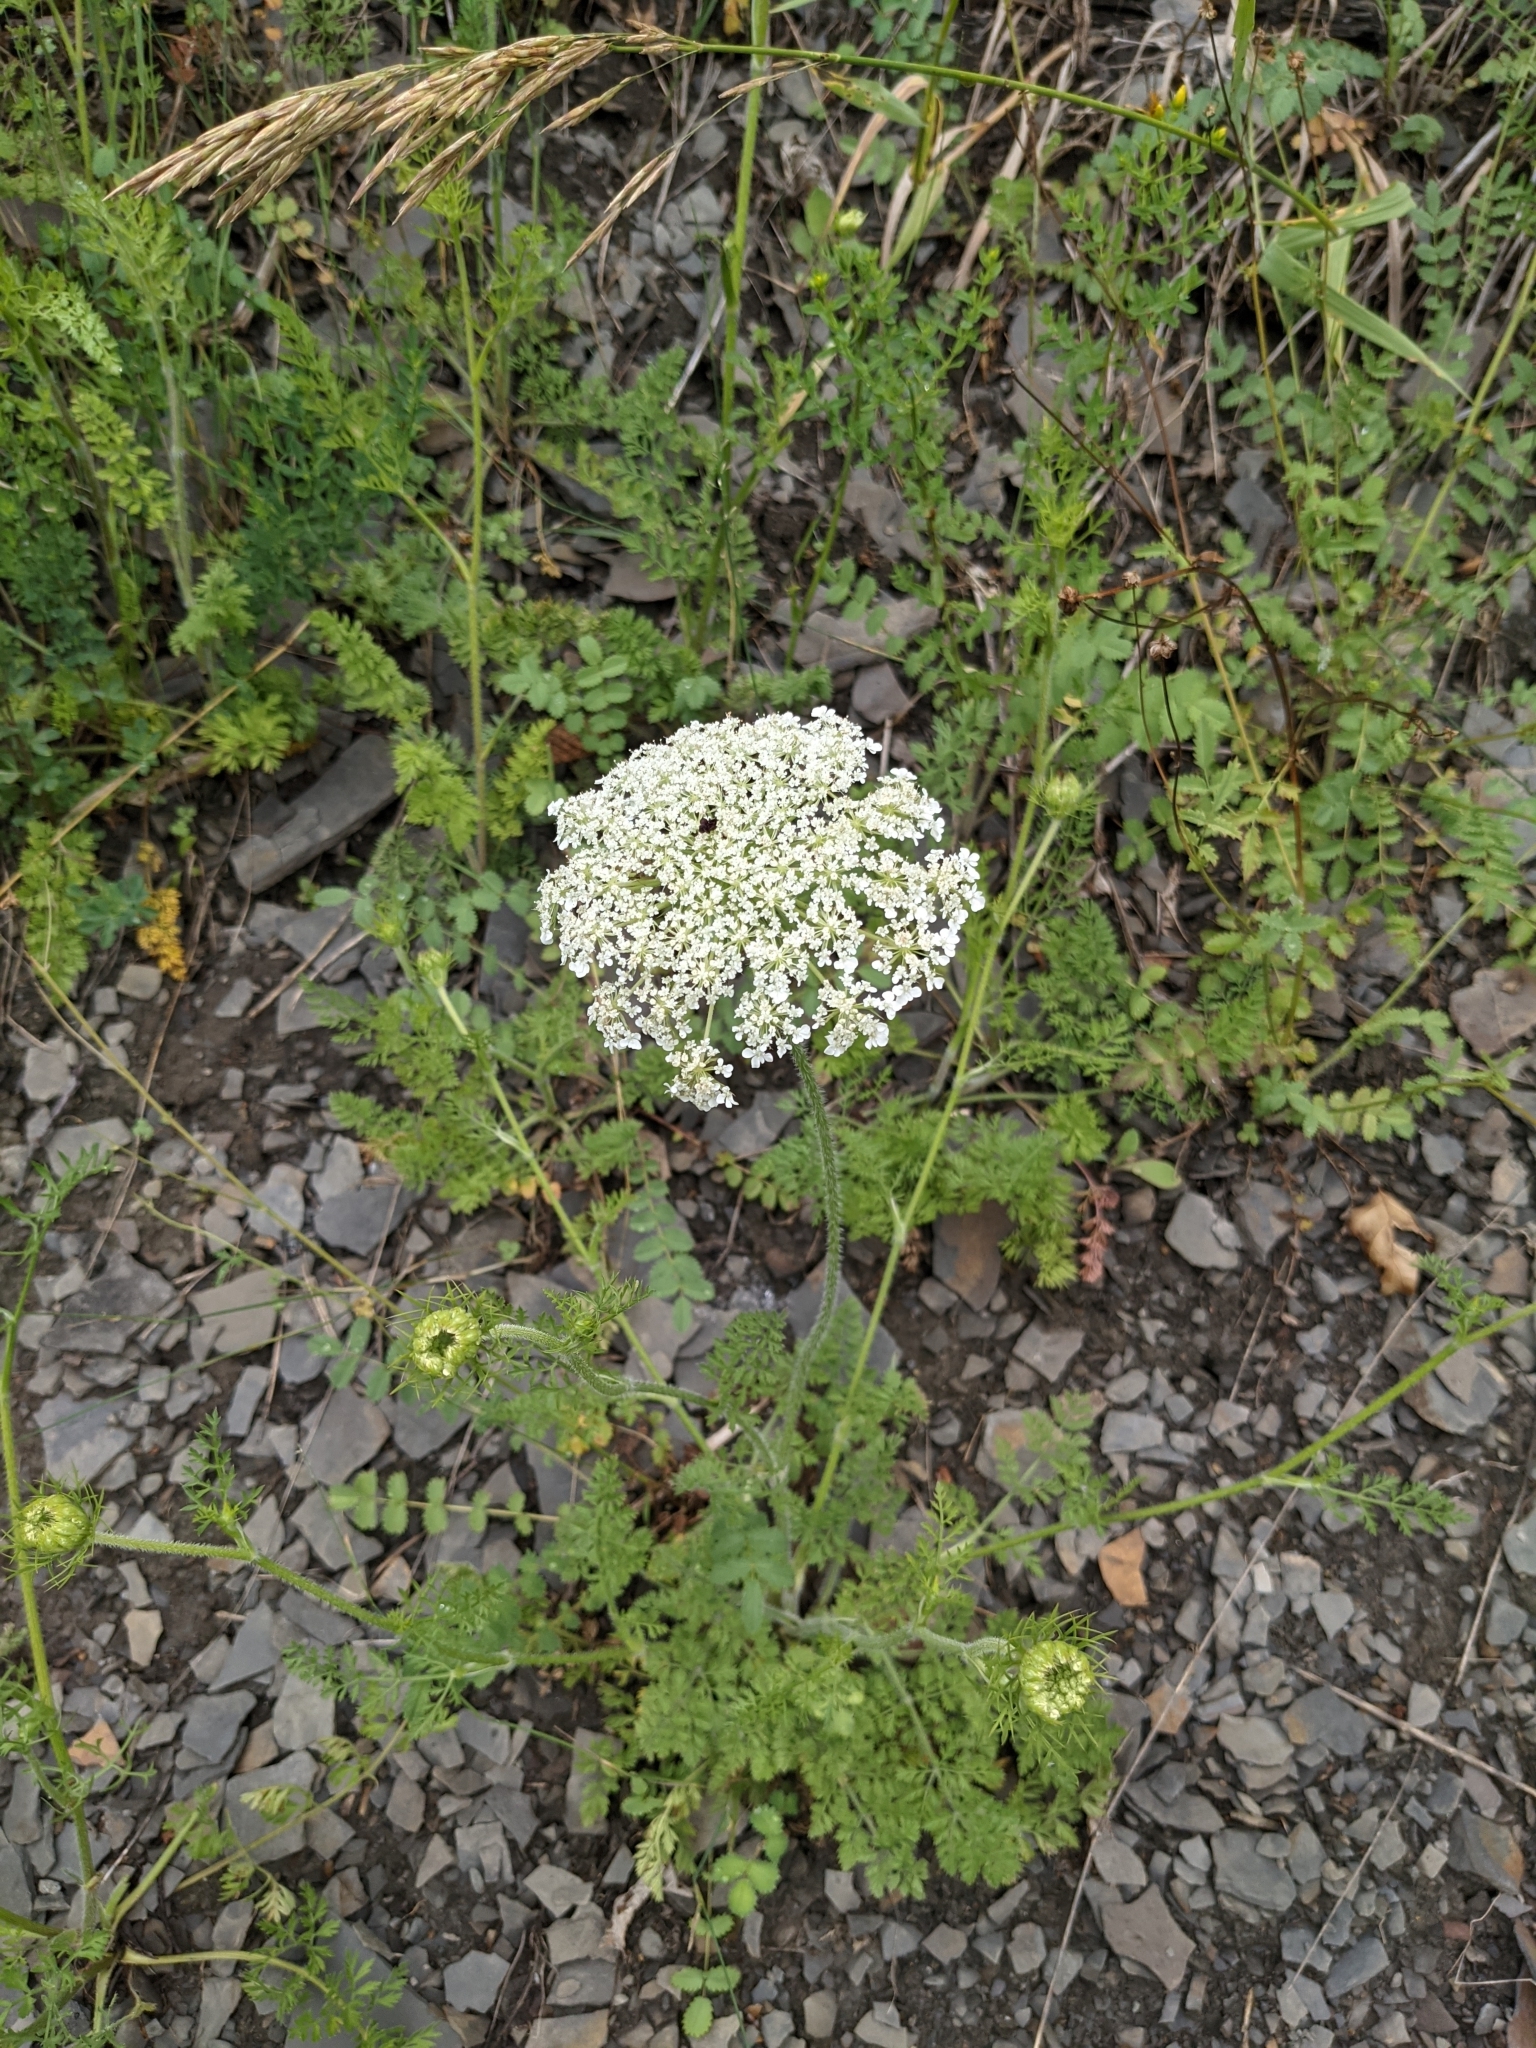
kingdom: Plantae
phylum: Tracheophyta
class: Magnoliopsida
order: Apiales
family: Apiaceae
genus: Daucus
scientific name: Daucus carota
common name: Wild carrot
